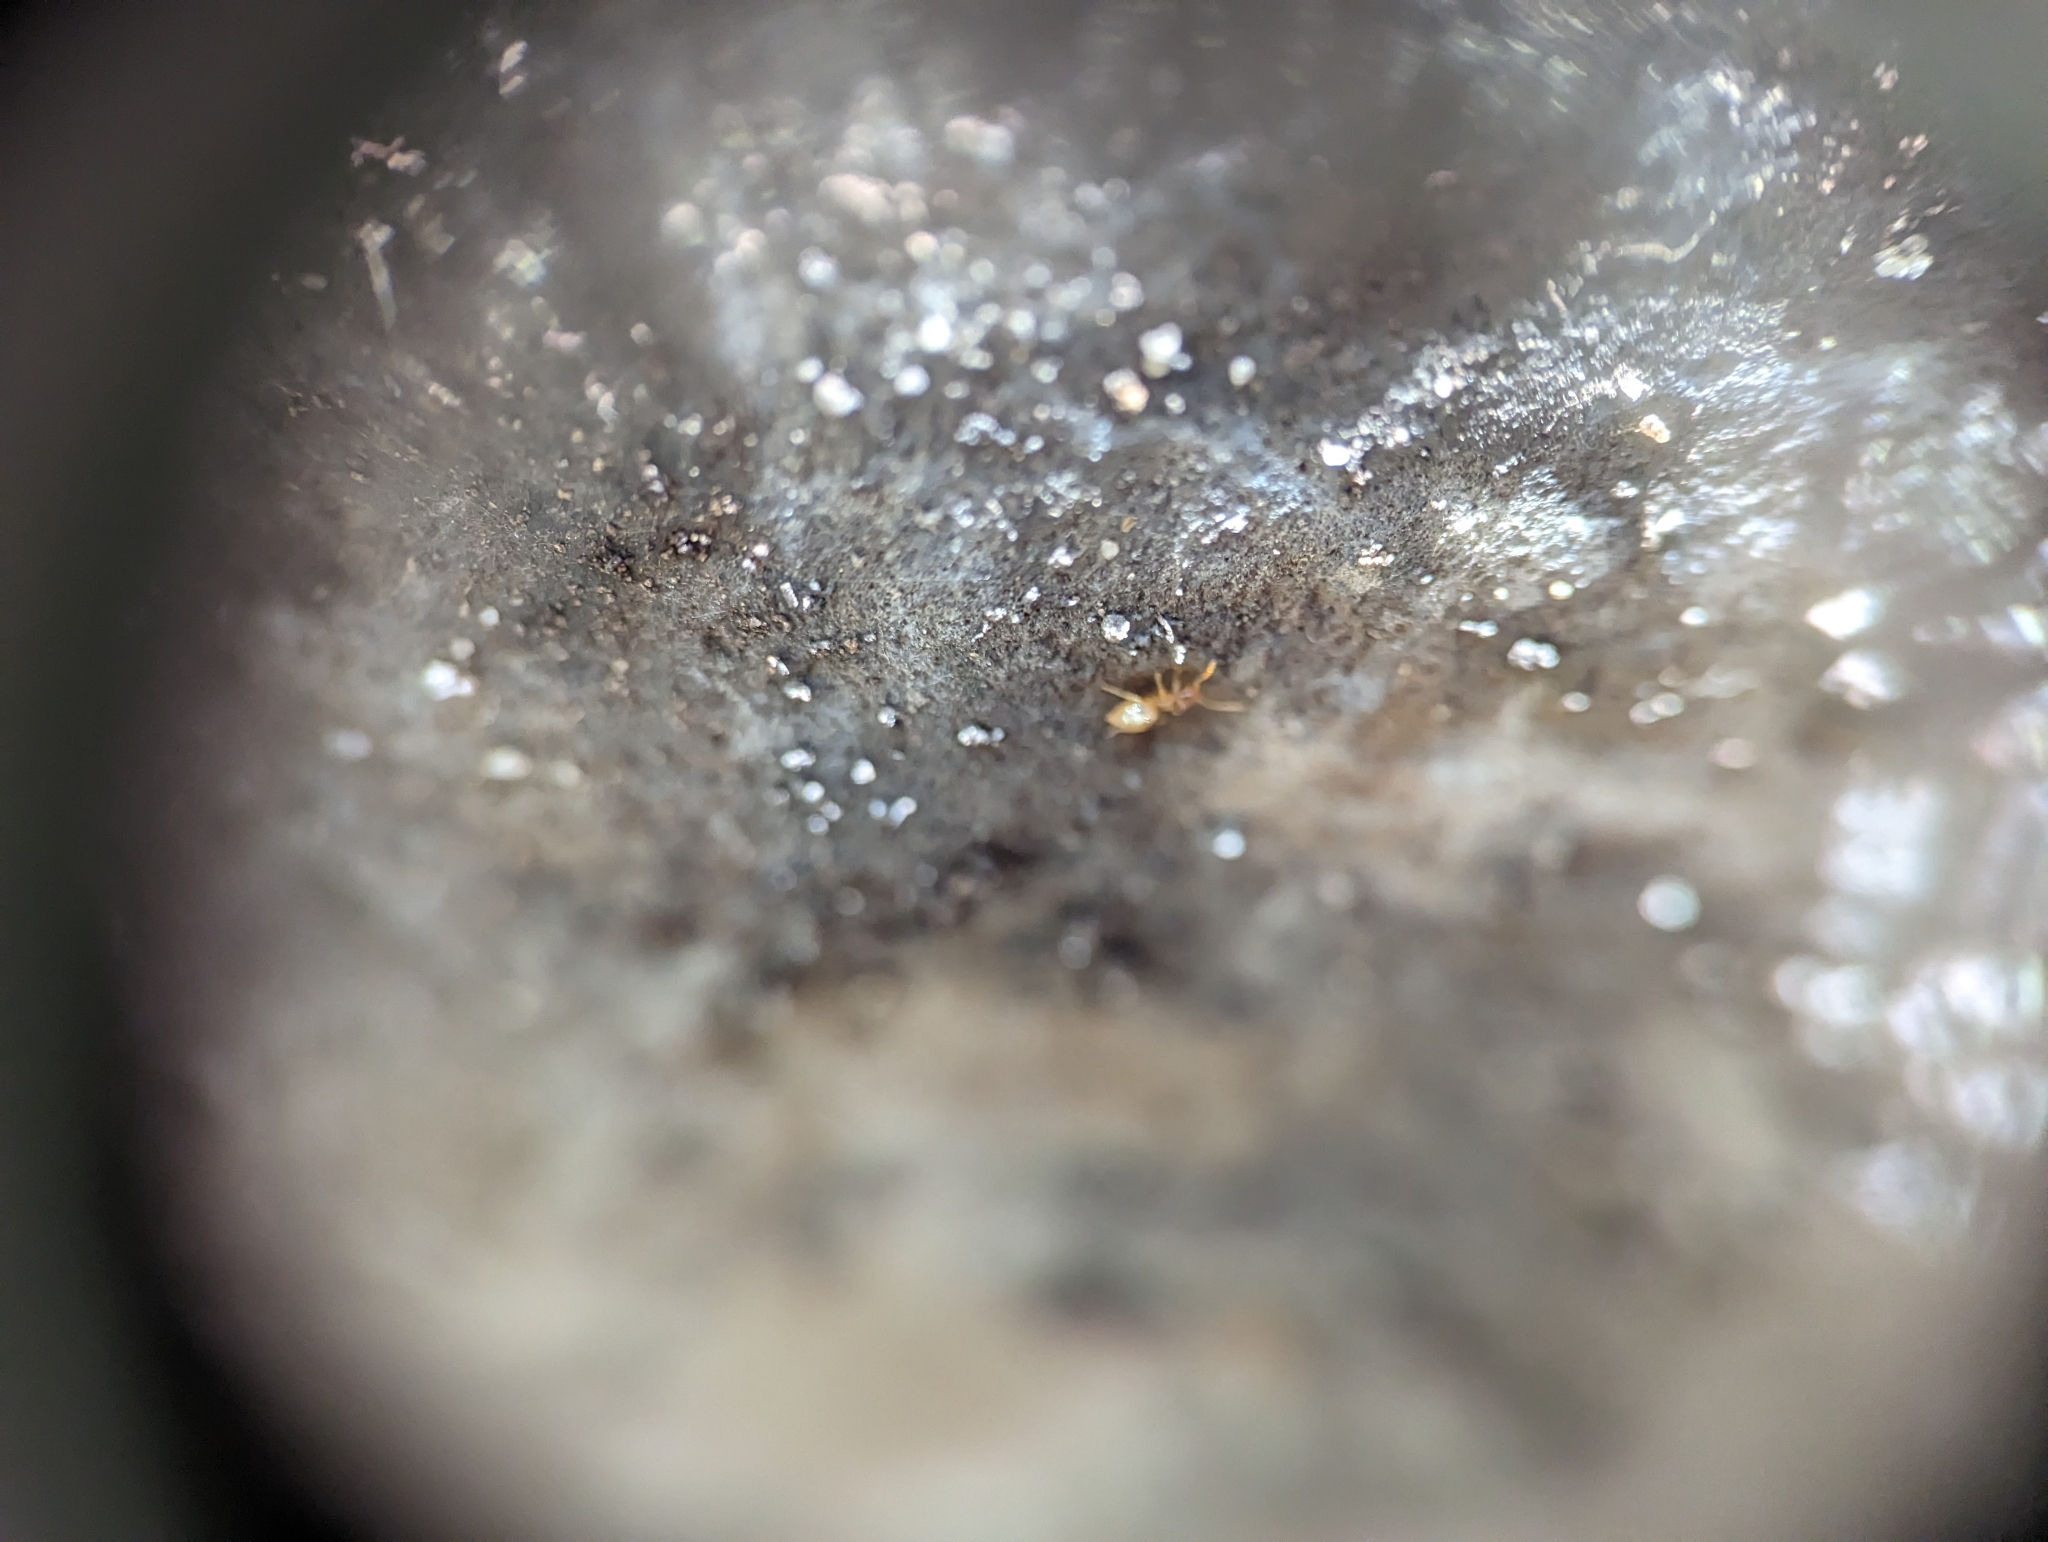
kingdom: Animalia
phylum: Arthropoda
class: Insecta
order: Hymenoptera
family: Formicidae
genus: Brachymyrmex
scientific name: Brachymyrmex depilis
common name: Hairless rover ant
